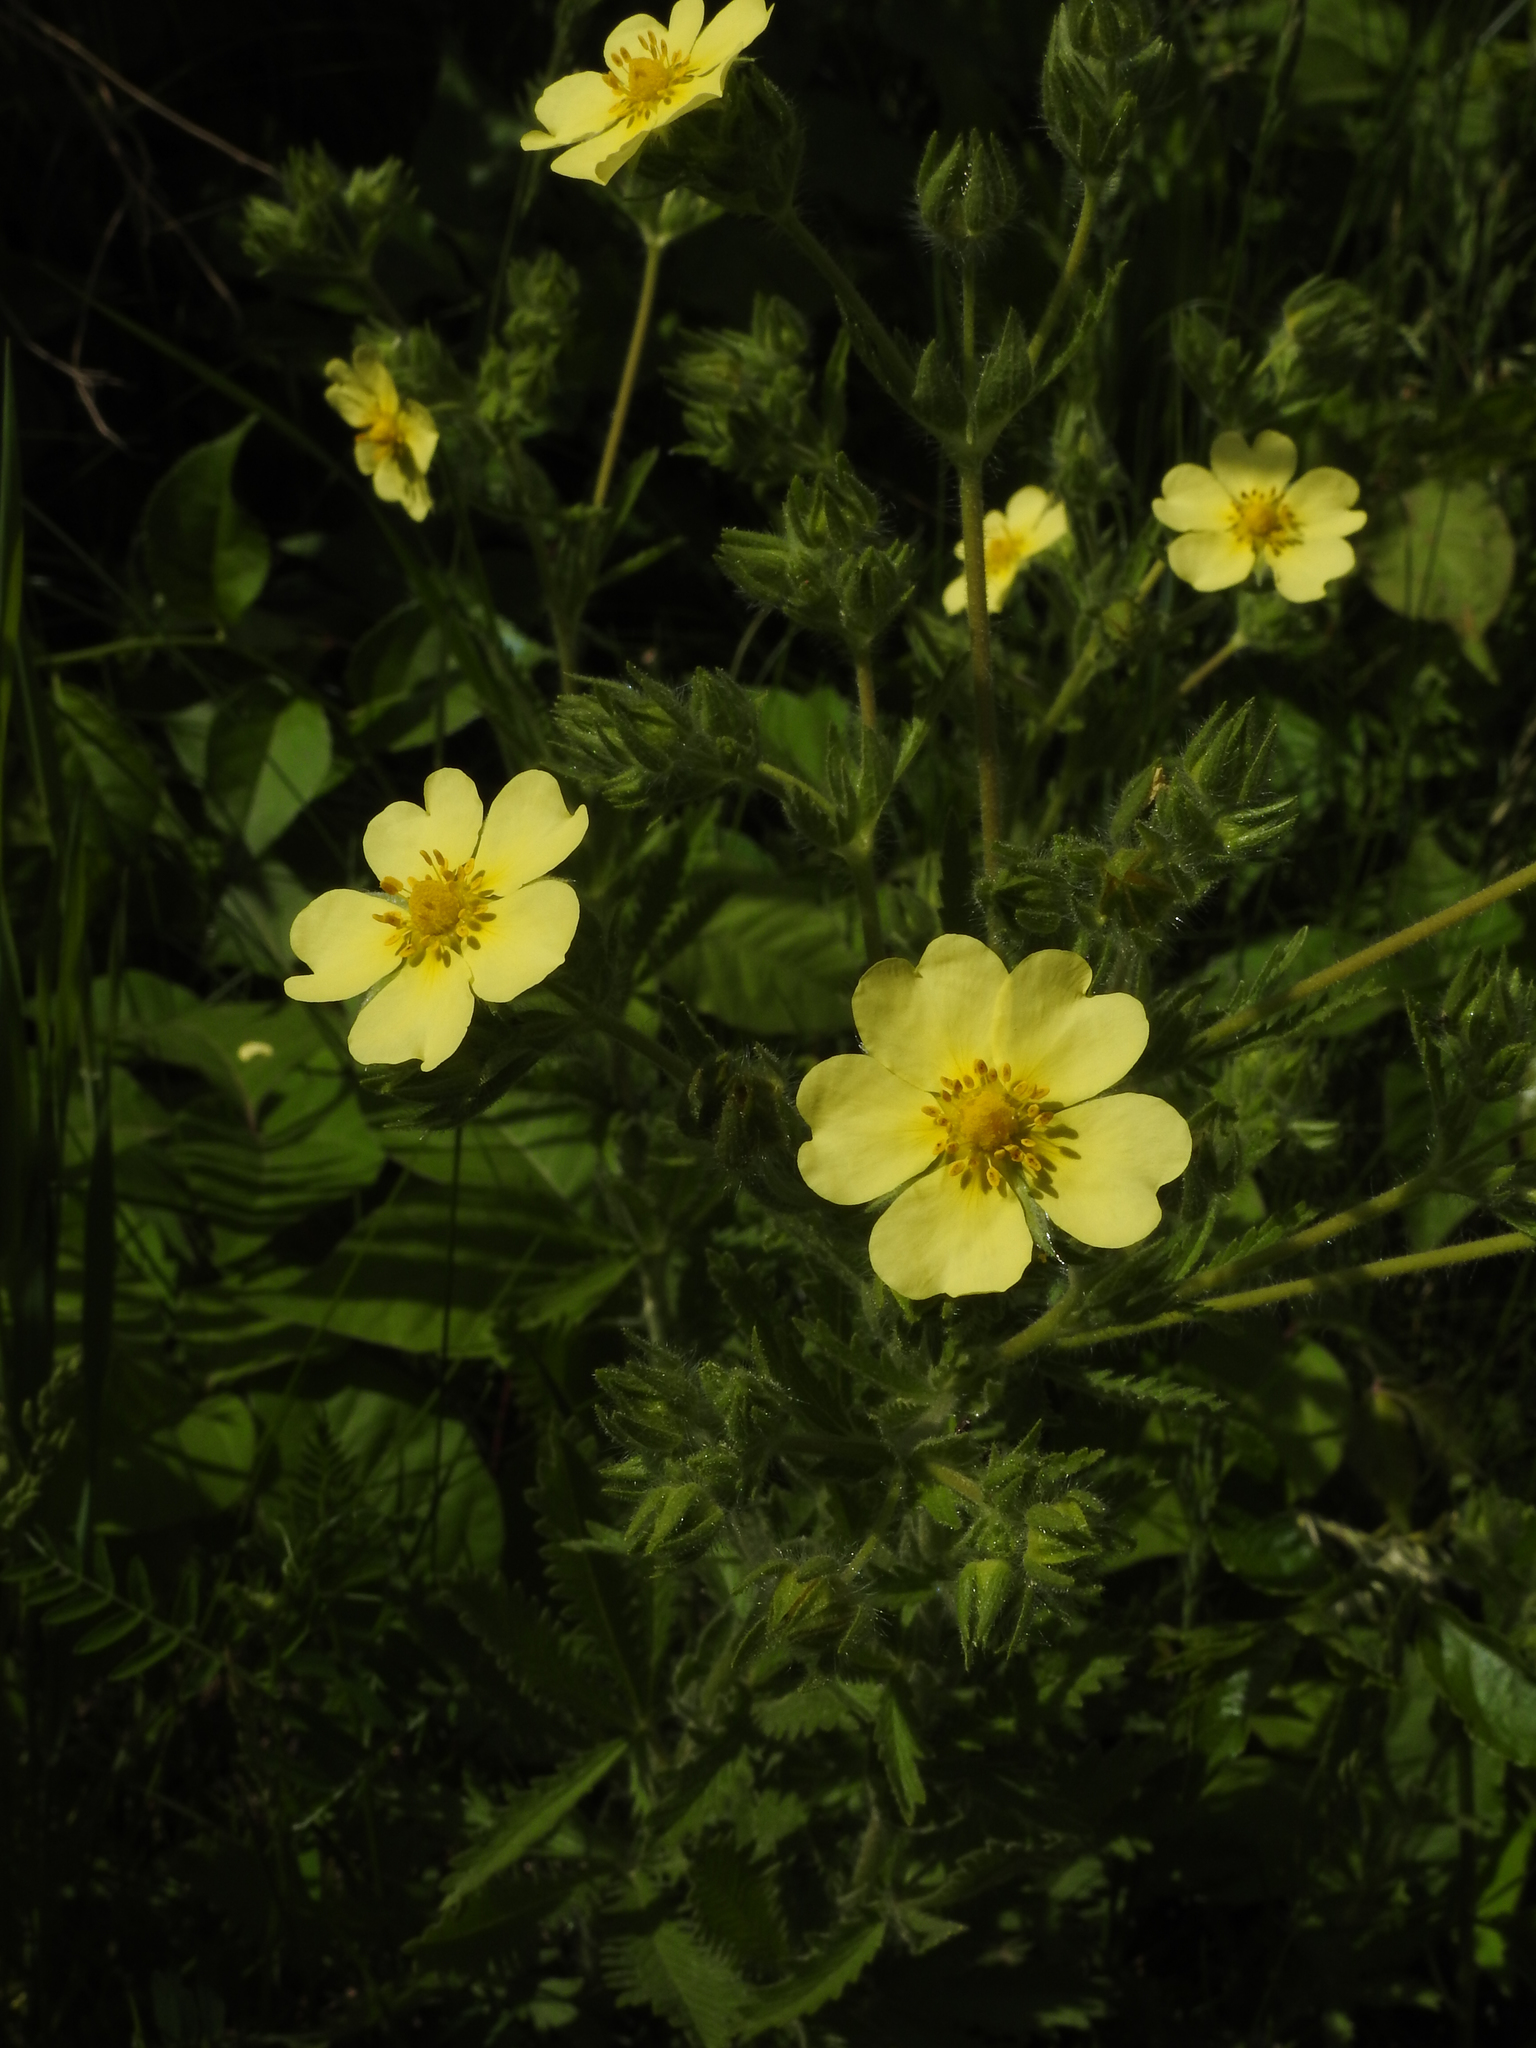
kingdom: Plantae
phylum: Tracheophyta
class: Magnoliopsida
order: Rosales
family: Rosaceae
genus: Potentilla
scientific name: Potentilla recta
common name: Sulphur cinquefoil
